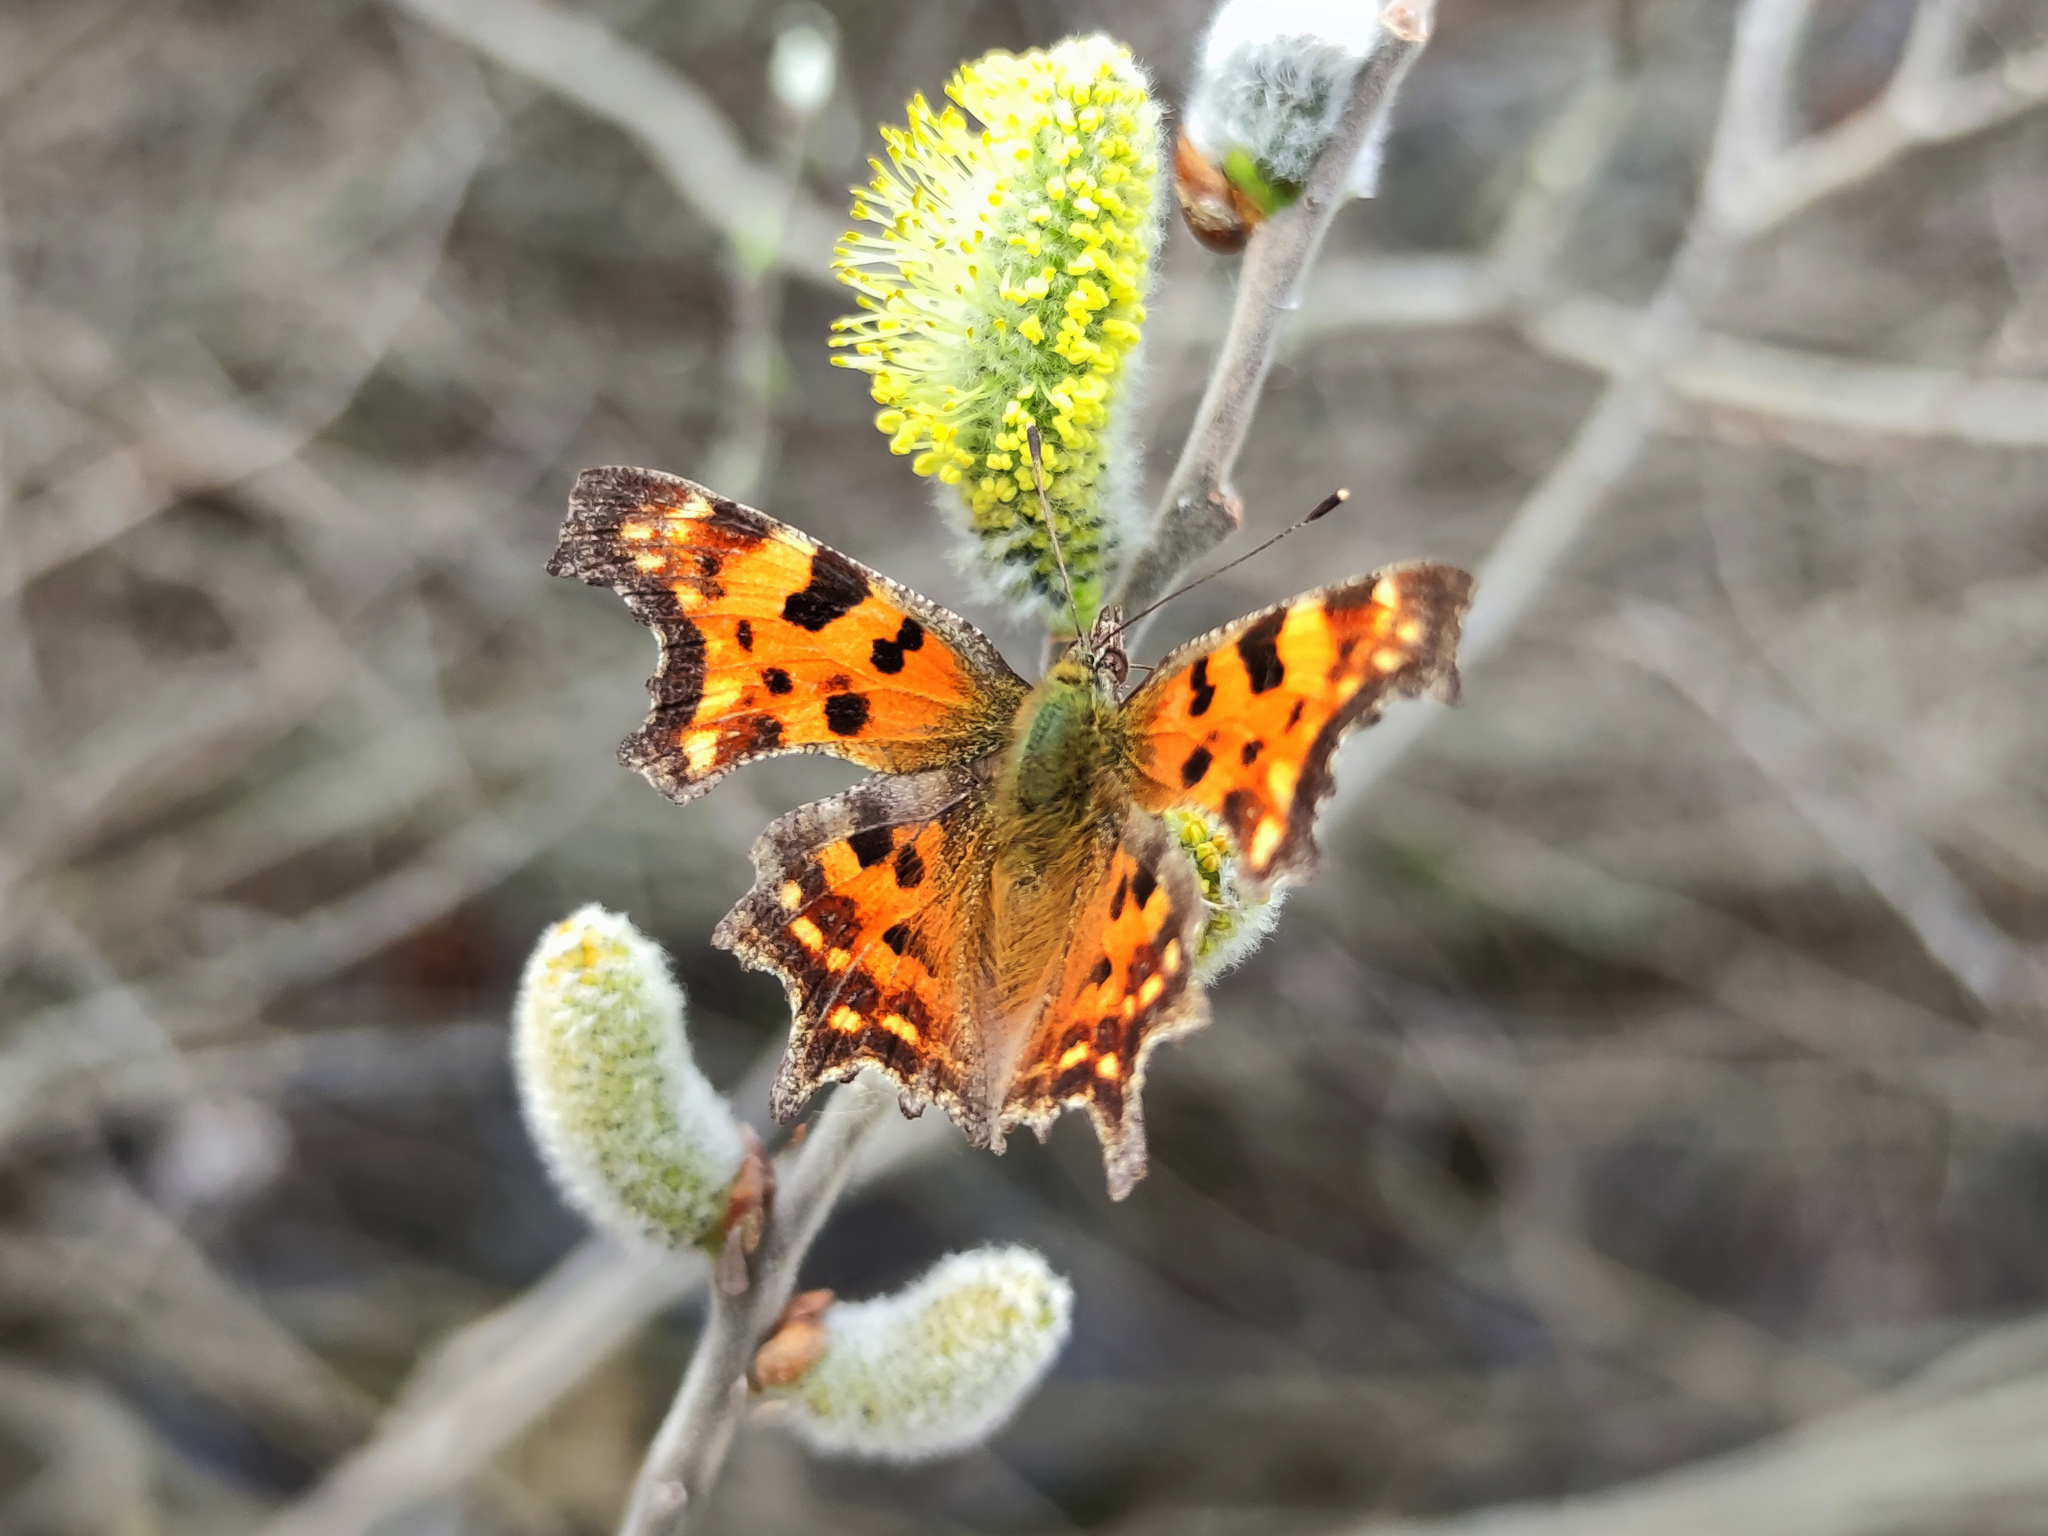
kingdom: Animalia
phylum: Arthropoda
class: Insecta
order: Lepidoptera
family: Nymphalidae
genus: Polygonia
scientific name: Polygonia c-album
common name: Comma
